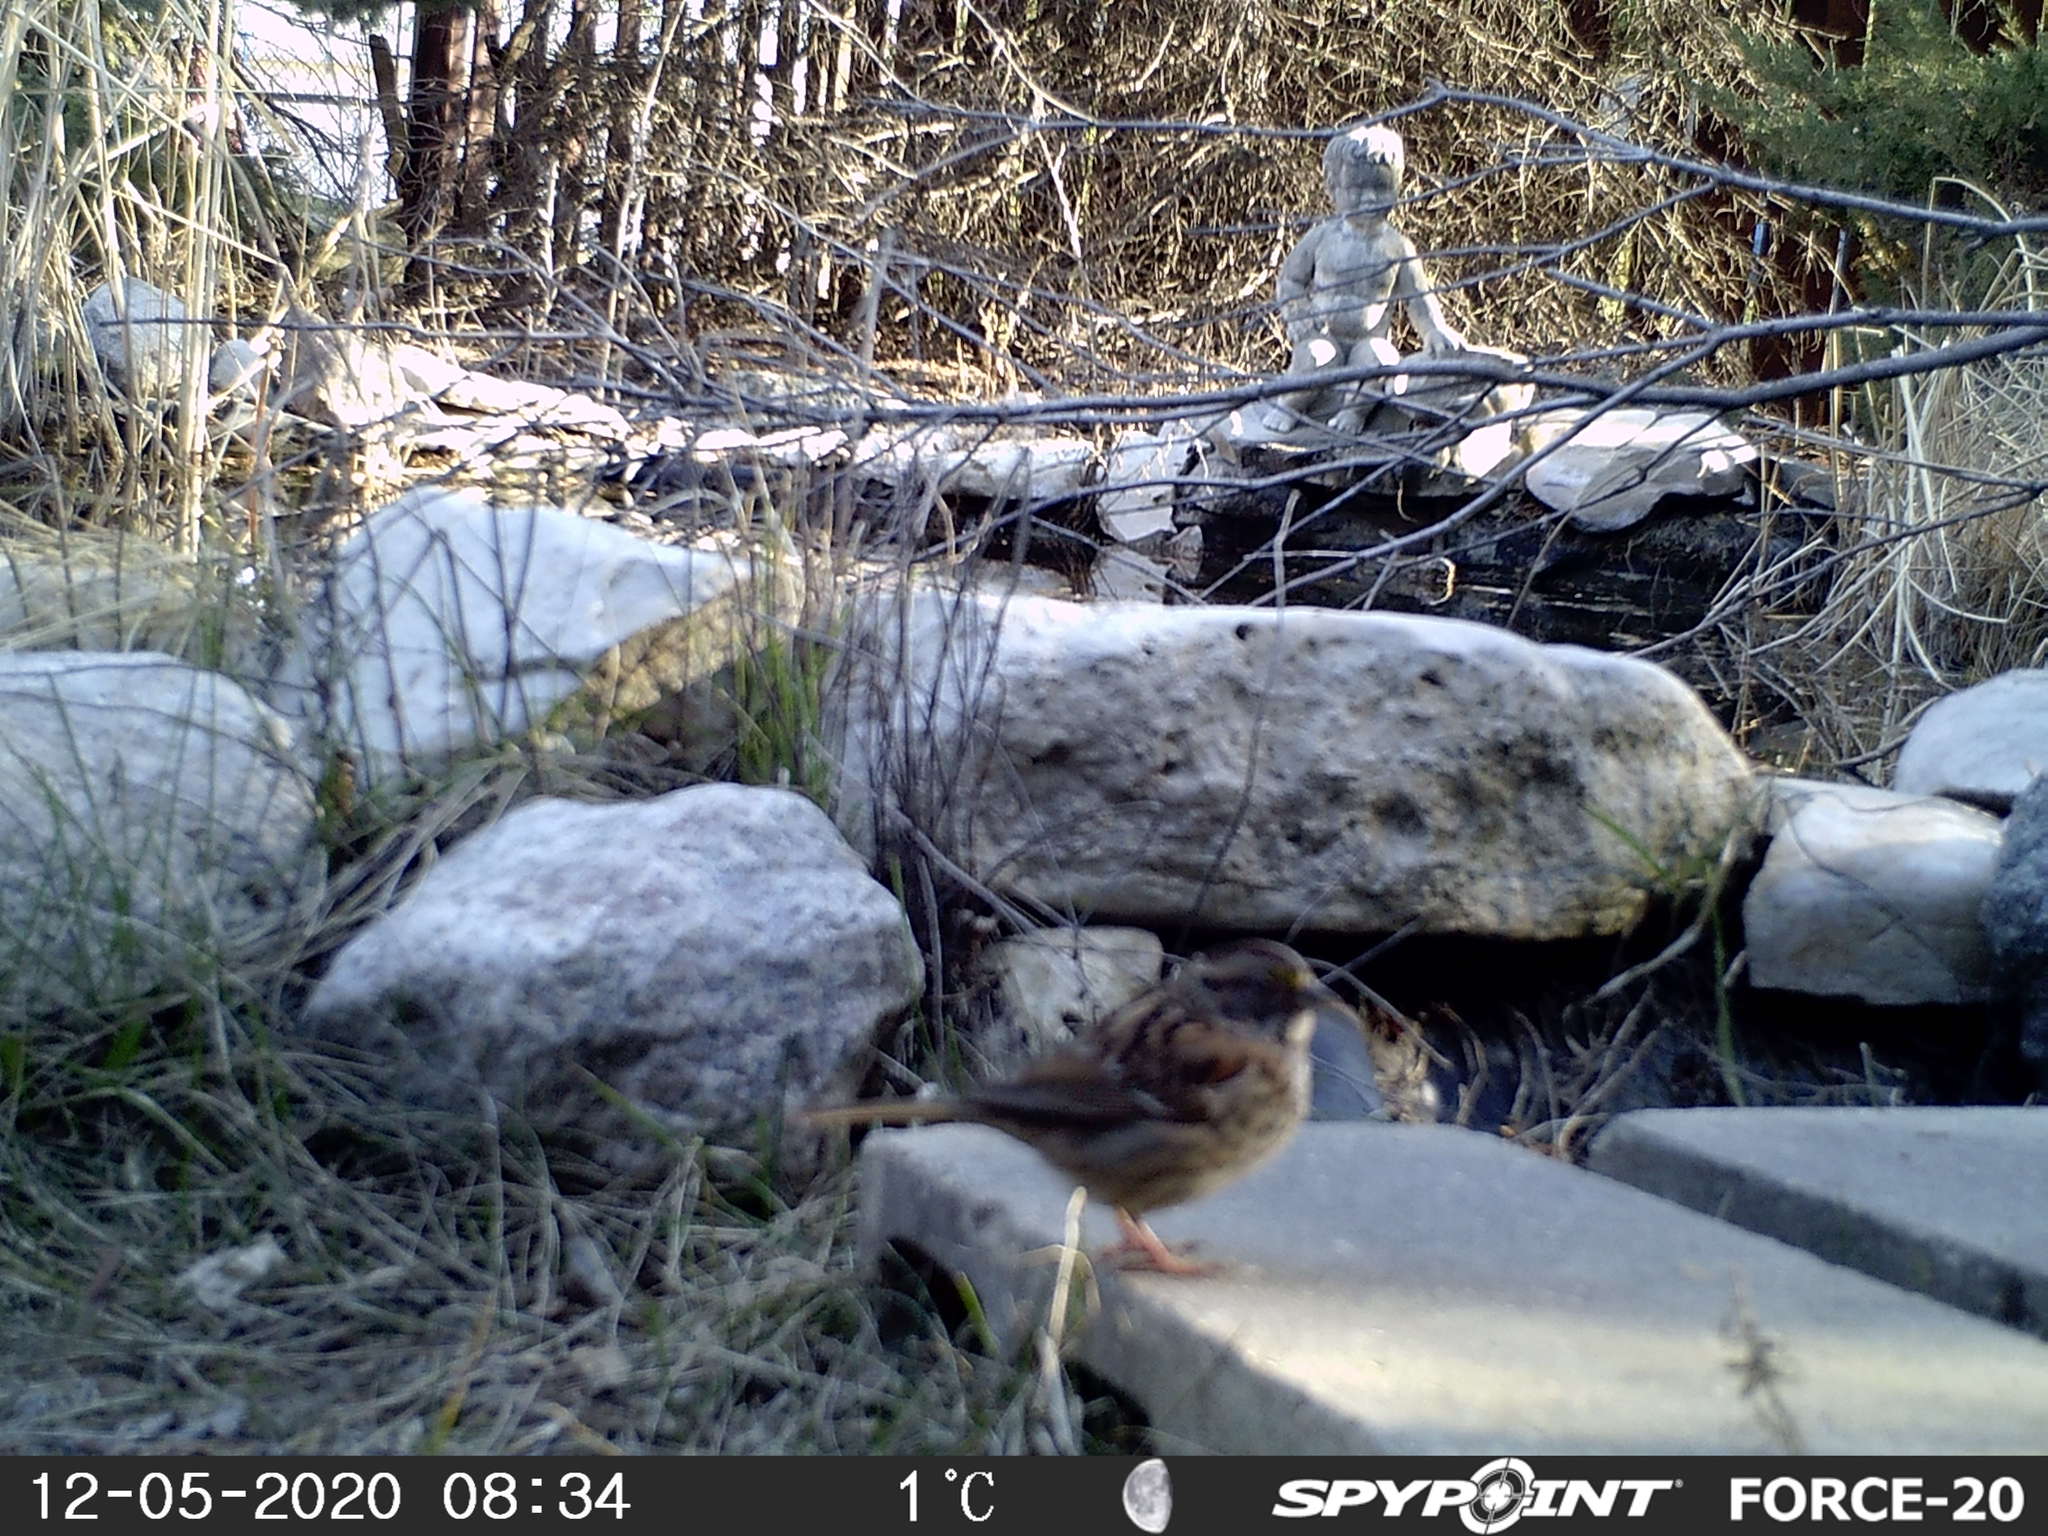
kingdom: Animalia
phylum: Chordata
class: Aves
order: Passeriformes
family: Passerellidae
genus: Zonotrichia
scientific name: Zonotrichia albicollis
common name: White-throated sparrow
